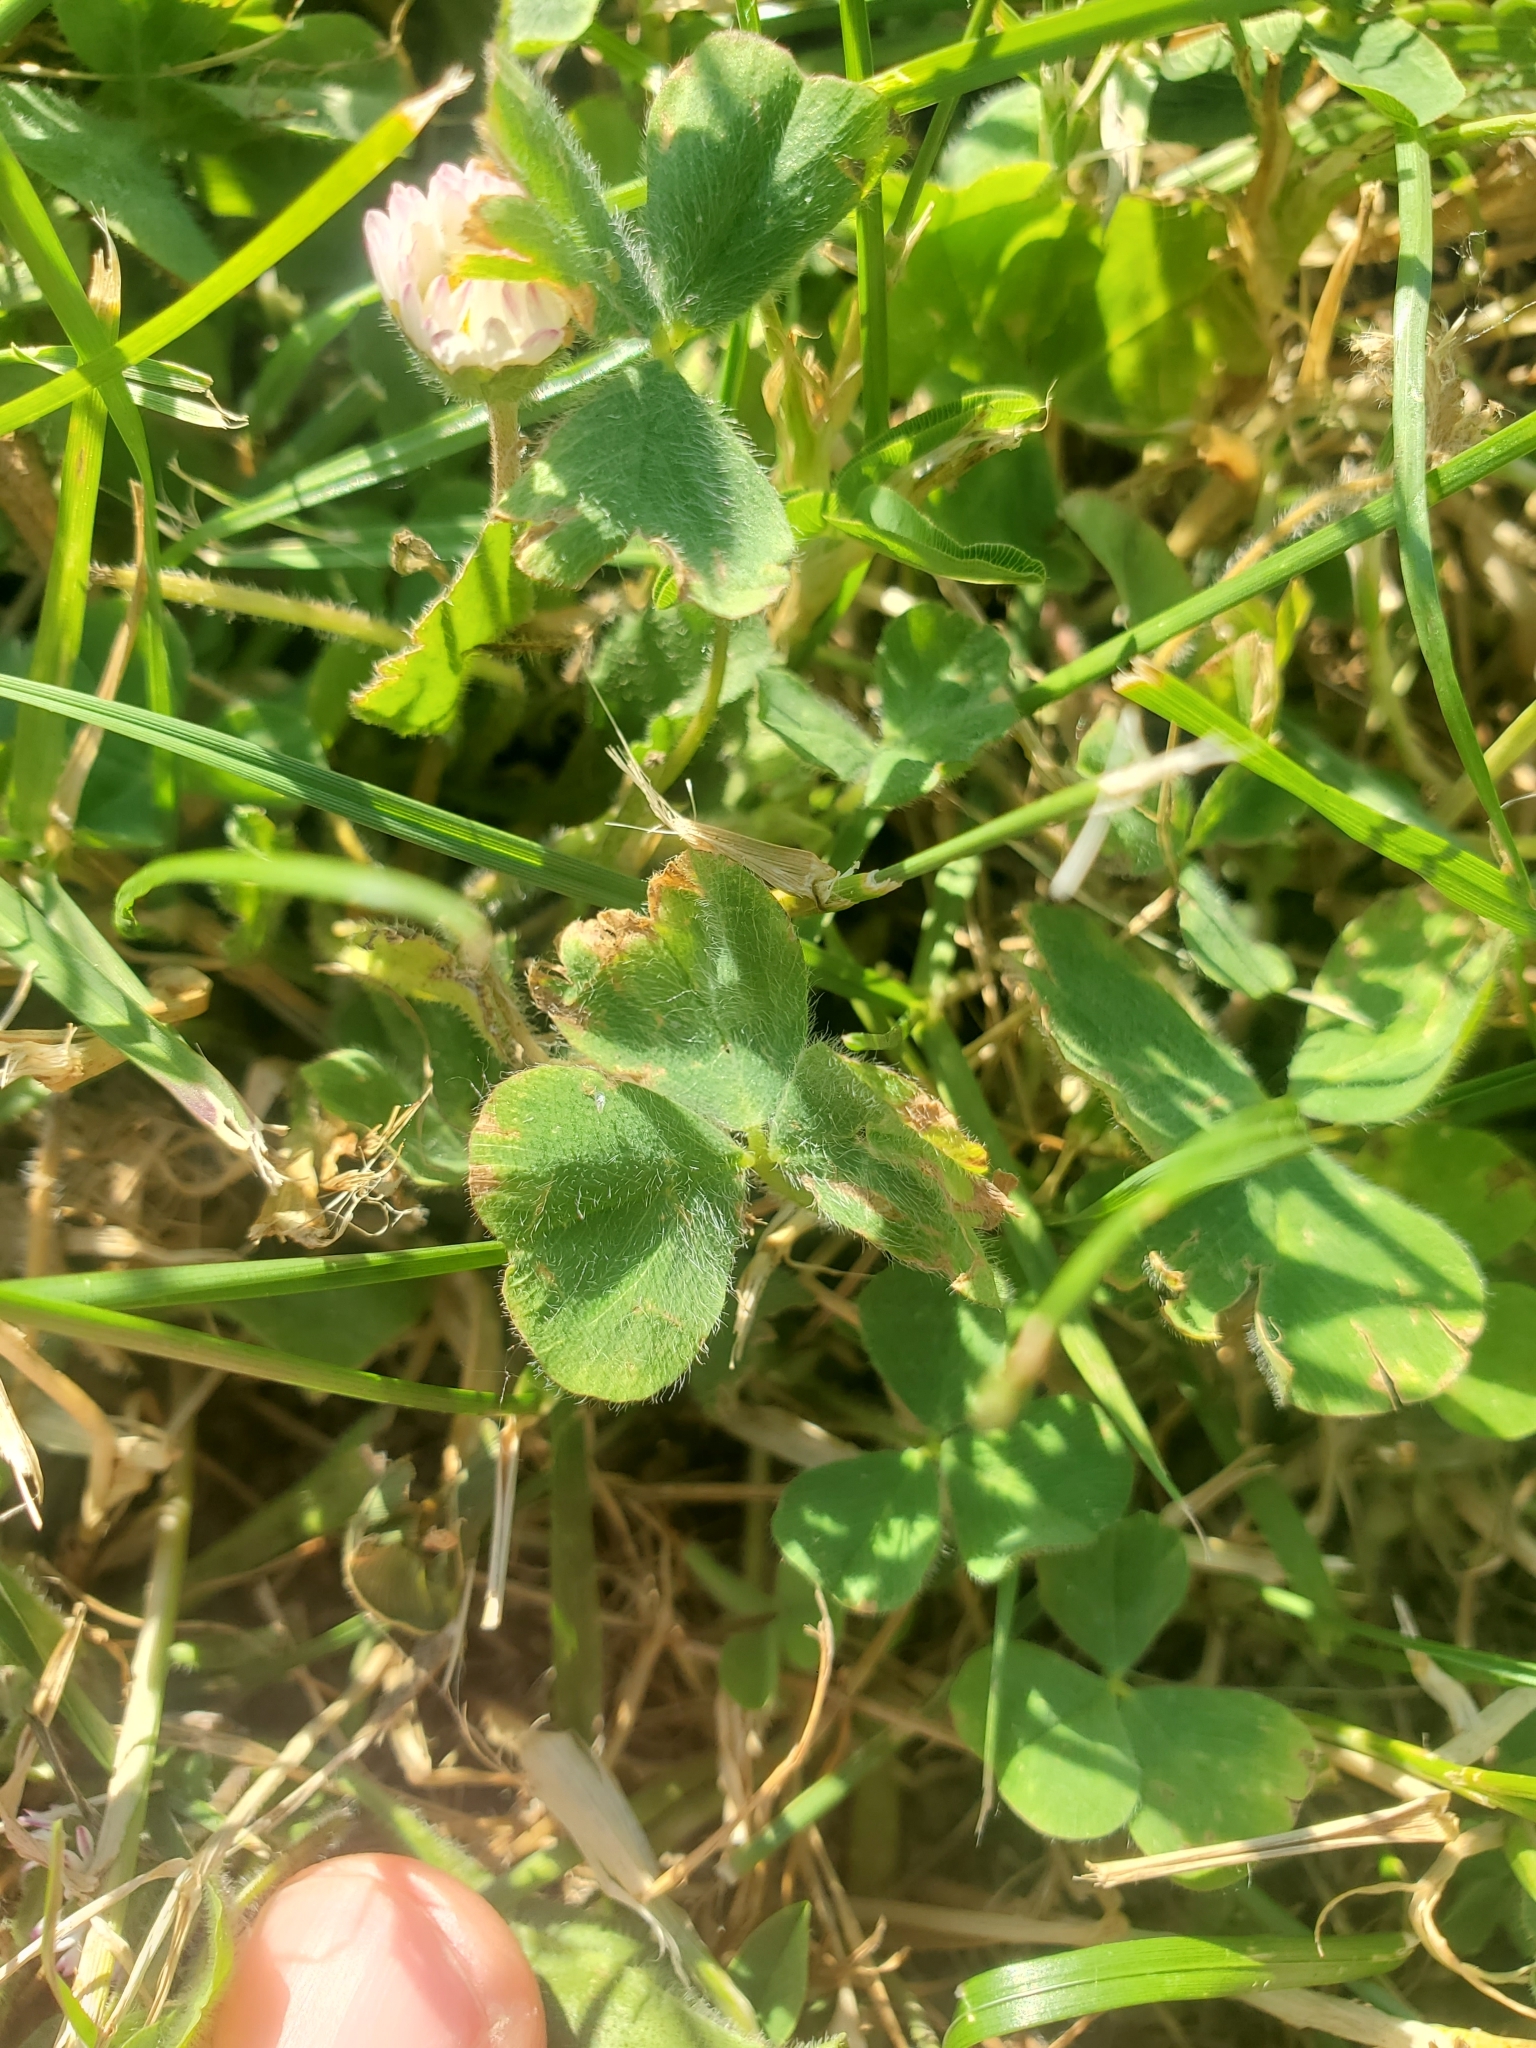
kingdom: Plantae
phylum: Tracheophyta
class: Magnoliopsida
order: Asterales
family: Asteraceae
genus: Bellis
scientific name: Bellis perennis
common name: Lawndaisy
